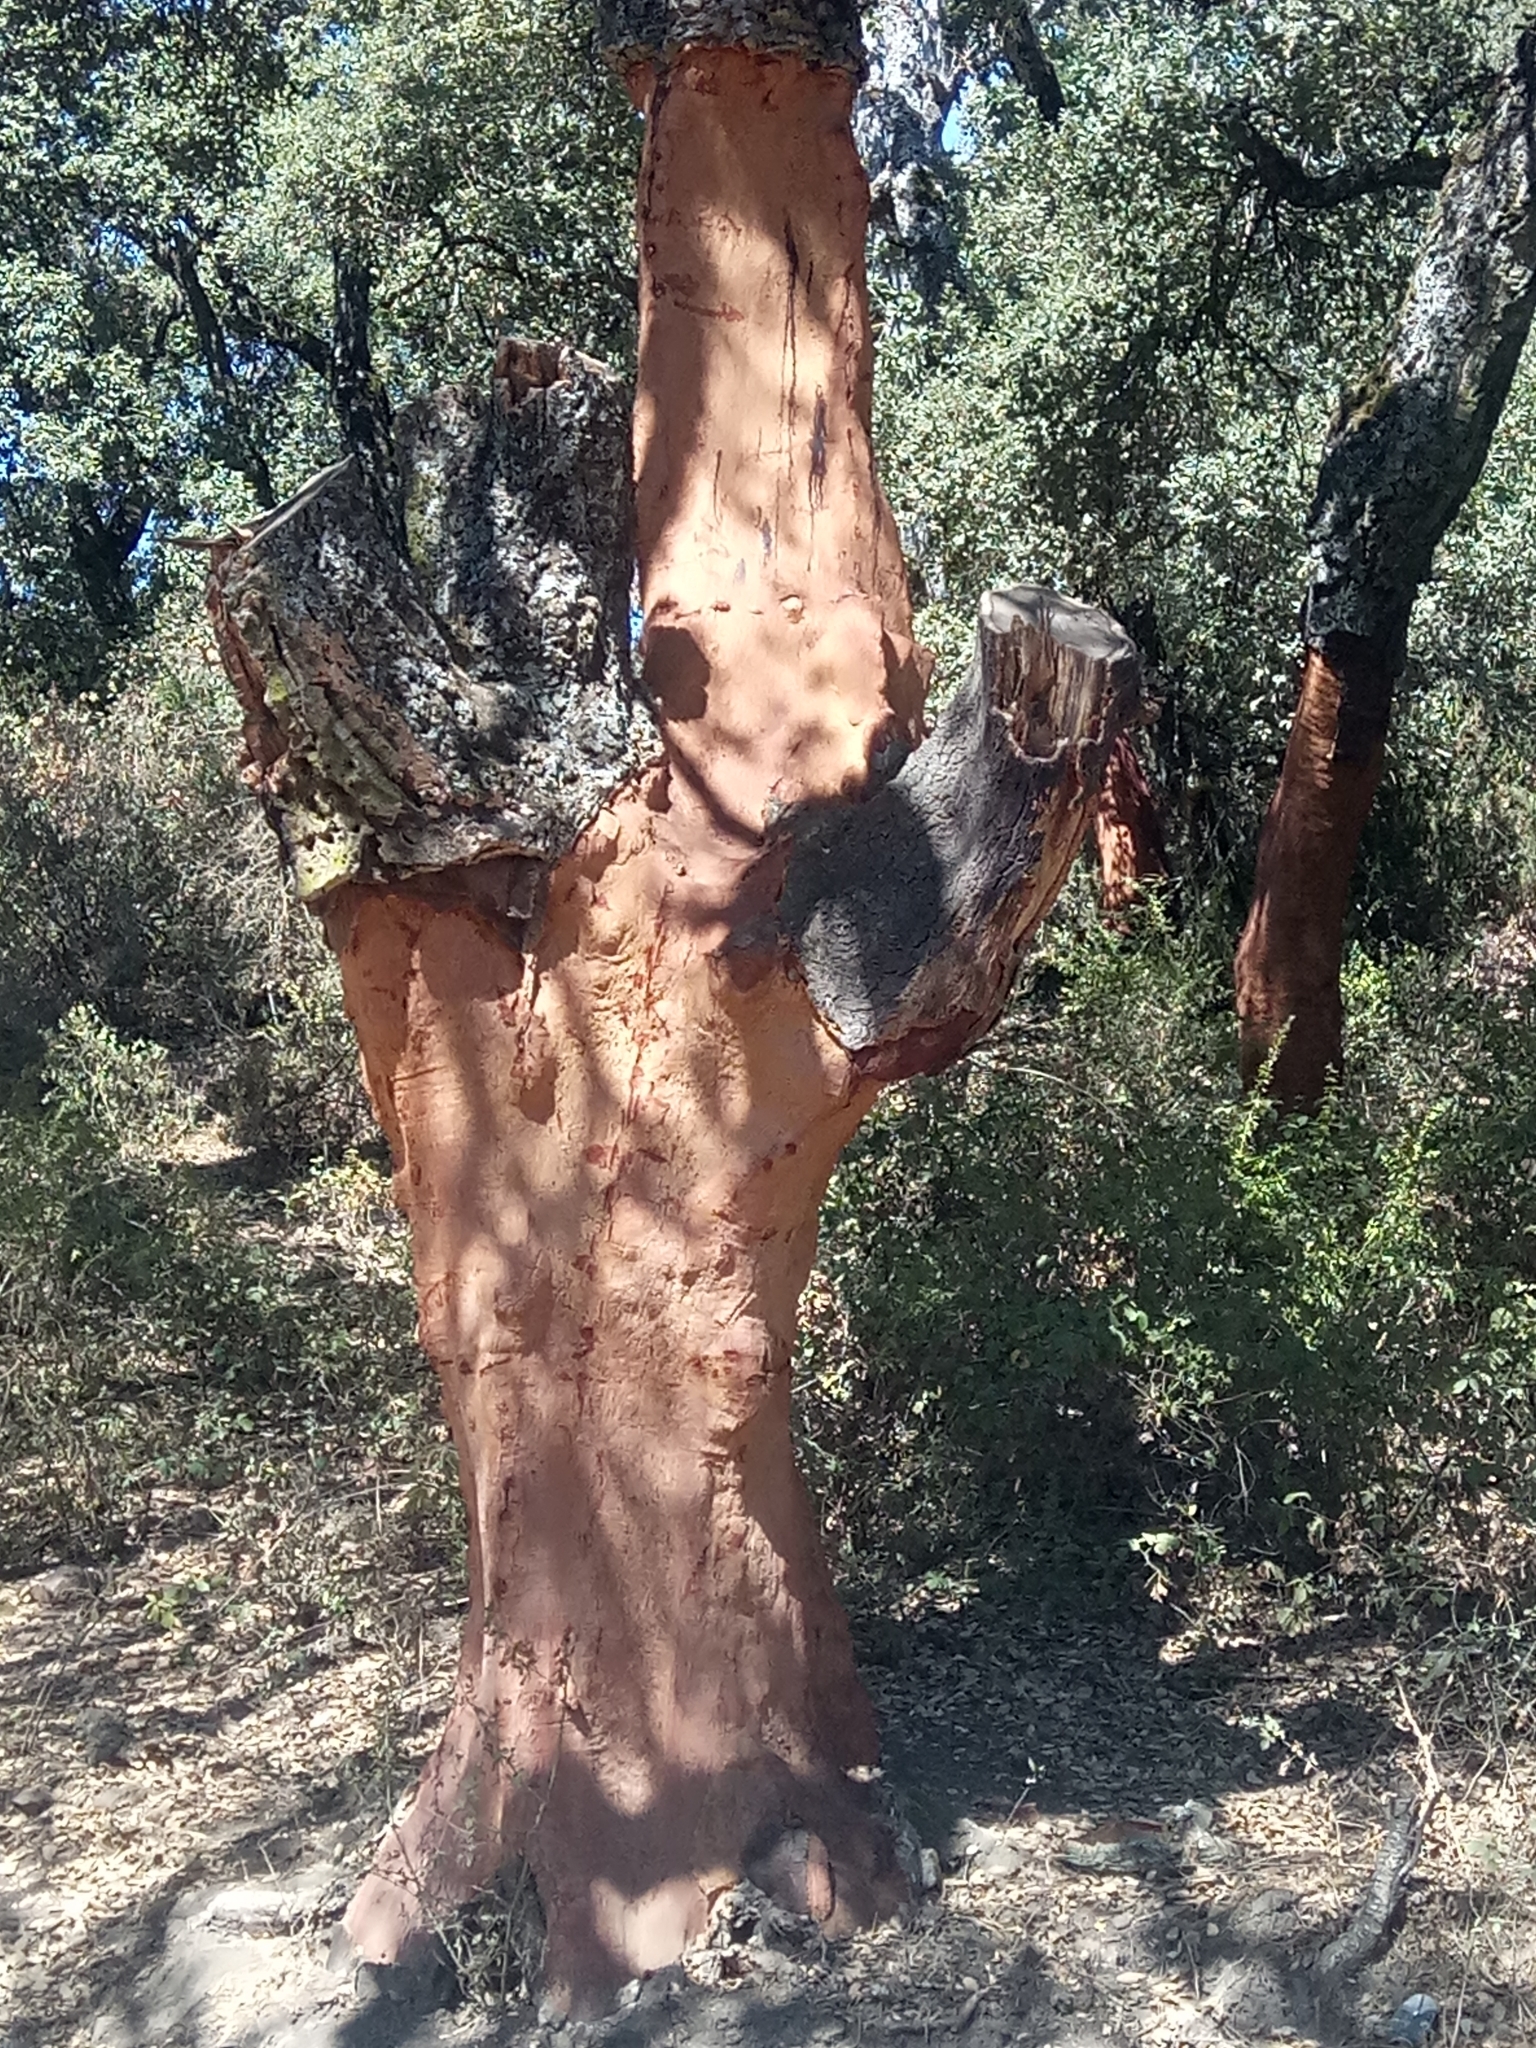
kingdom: Plantae
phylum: Tracheophyta
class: Magnoliopsida
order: Fagales
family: Fagaceae
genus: Quercus
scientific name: Quercus suber
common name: Cork oak
